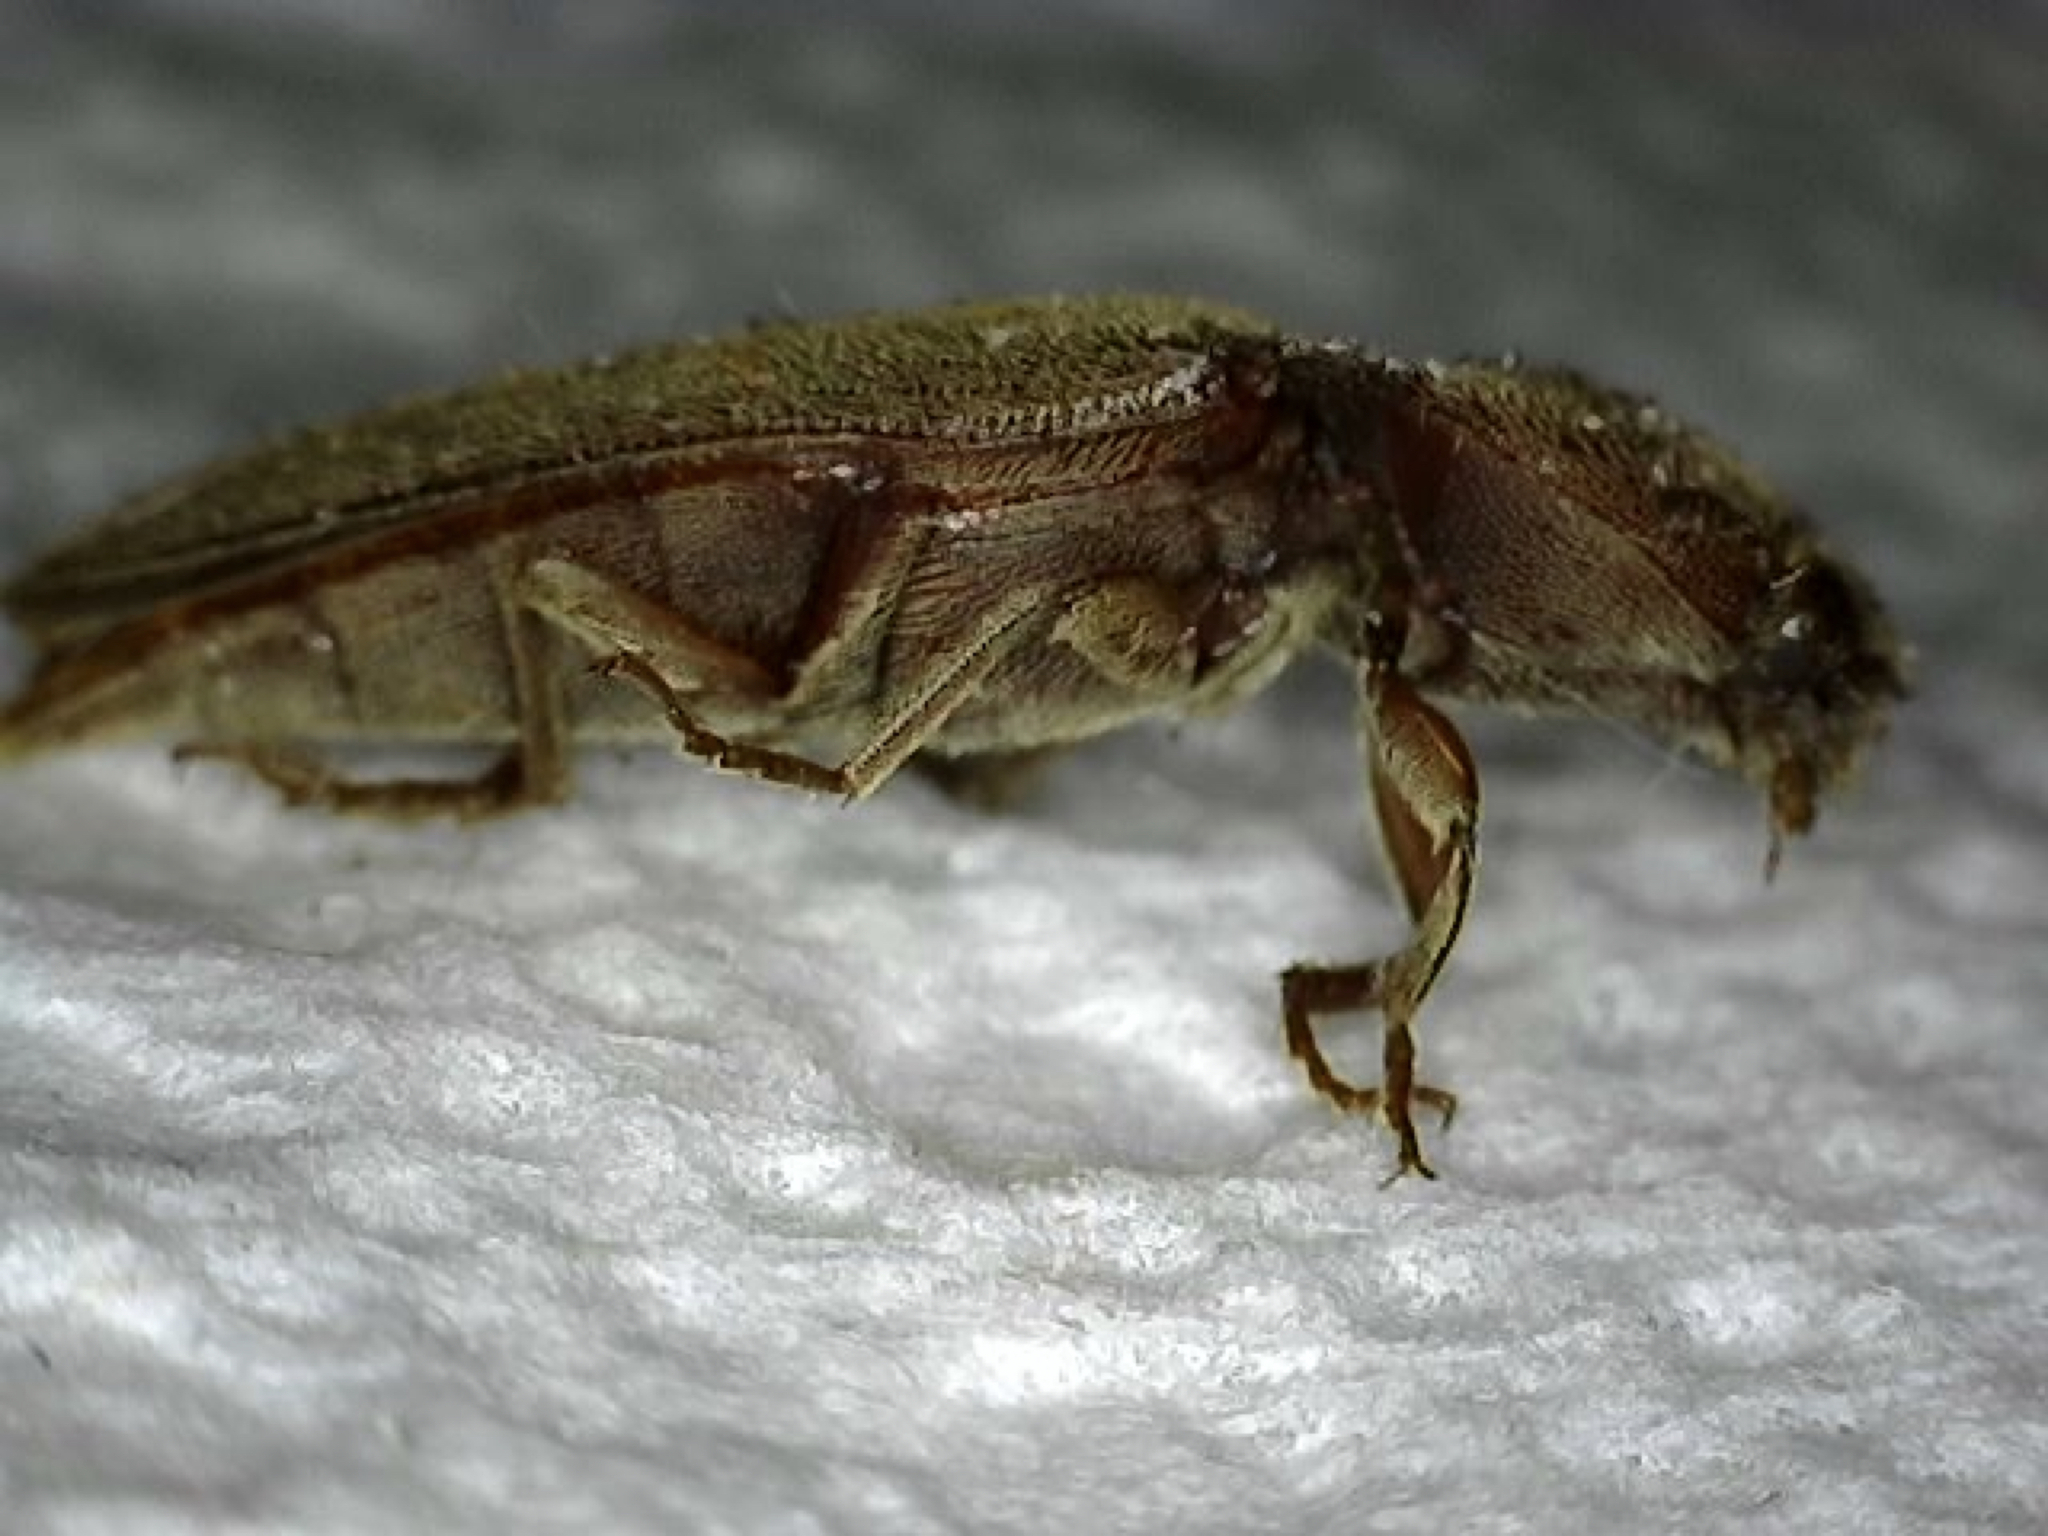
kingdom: Animalia
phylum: Arthropoda
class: Insecta
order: Coleoptera
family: Elateridae
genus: Melanotus
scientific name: Melanotus
